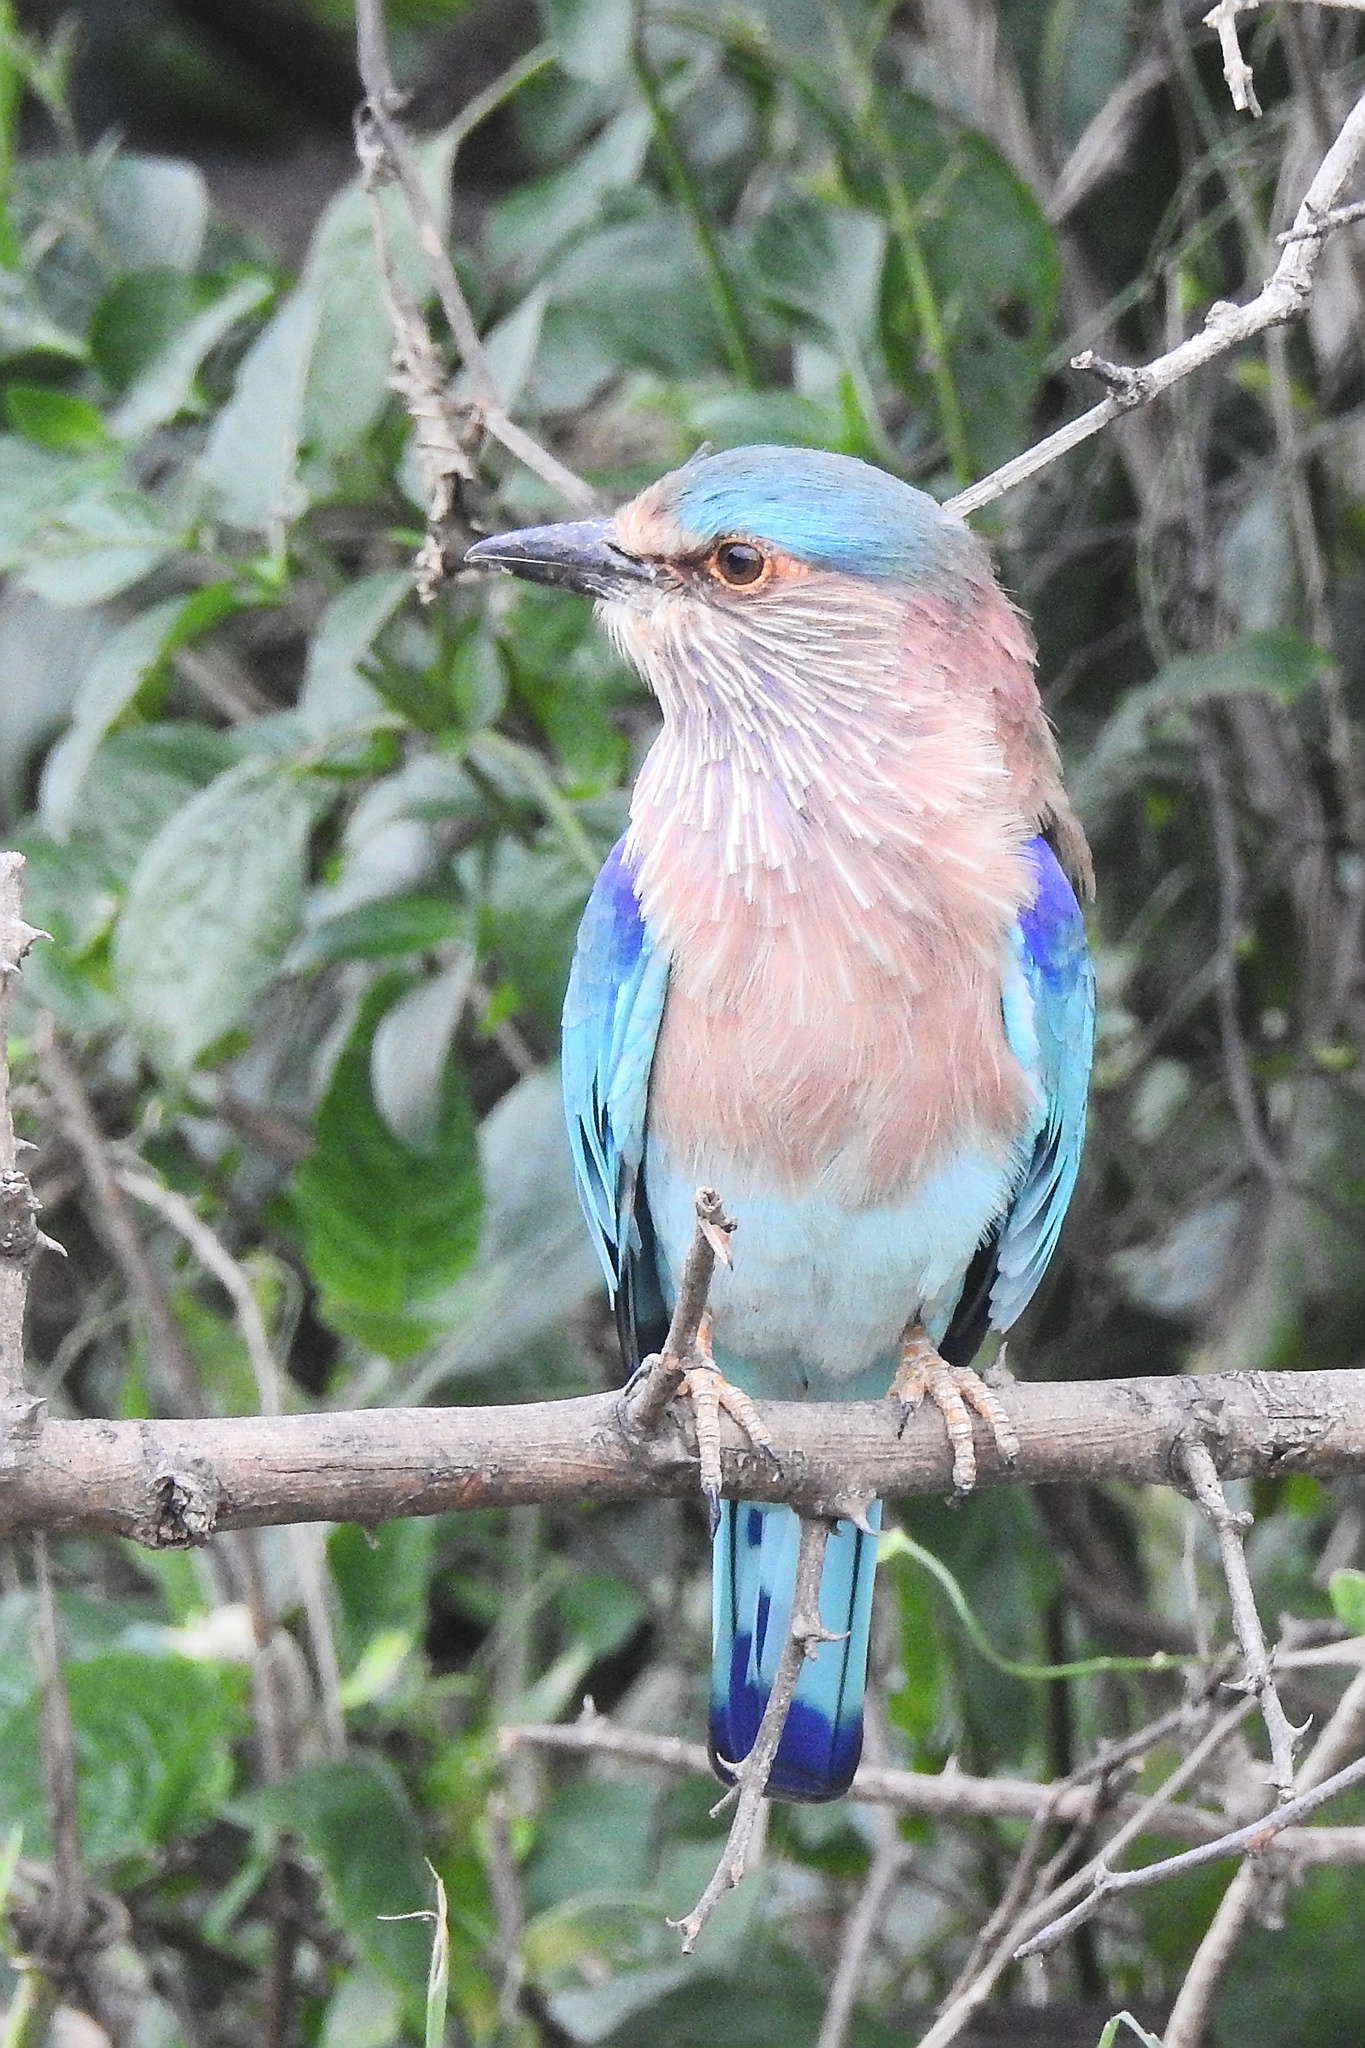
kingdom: Animalia
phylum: Chordata
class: Aves
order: Coraciiformes
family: Coraciidae
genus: Coracias
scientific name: Coracias benghalensis
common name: Indian roller
